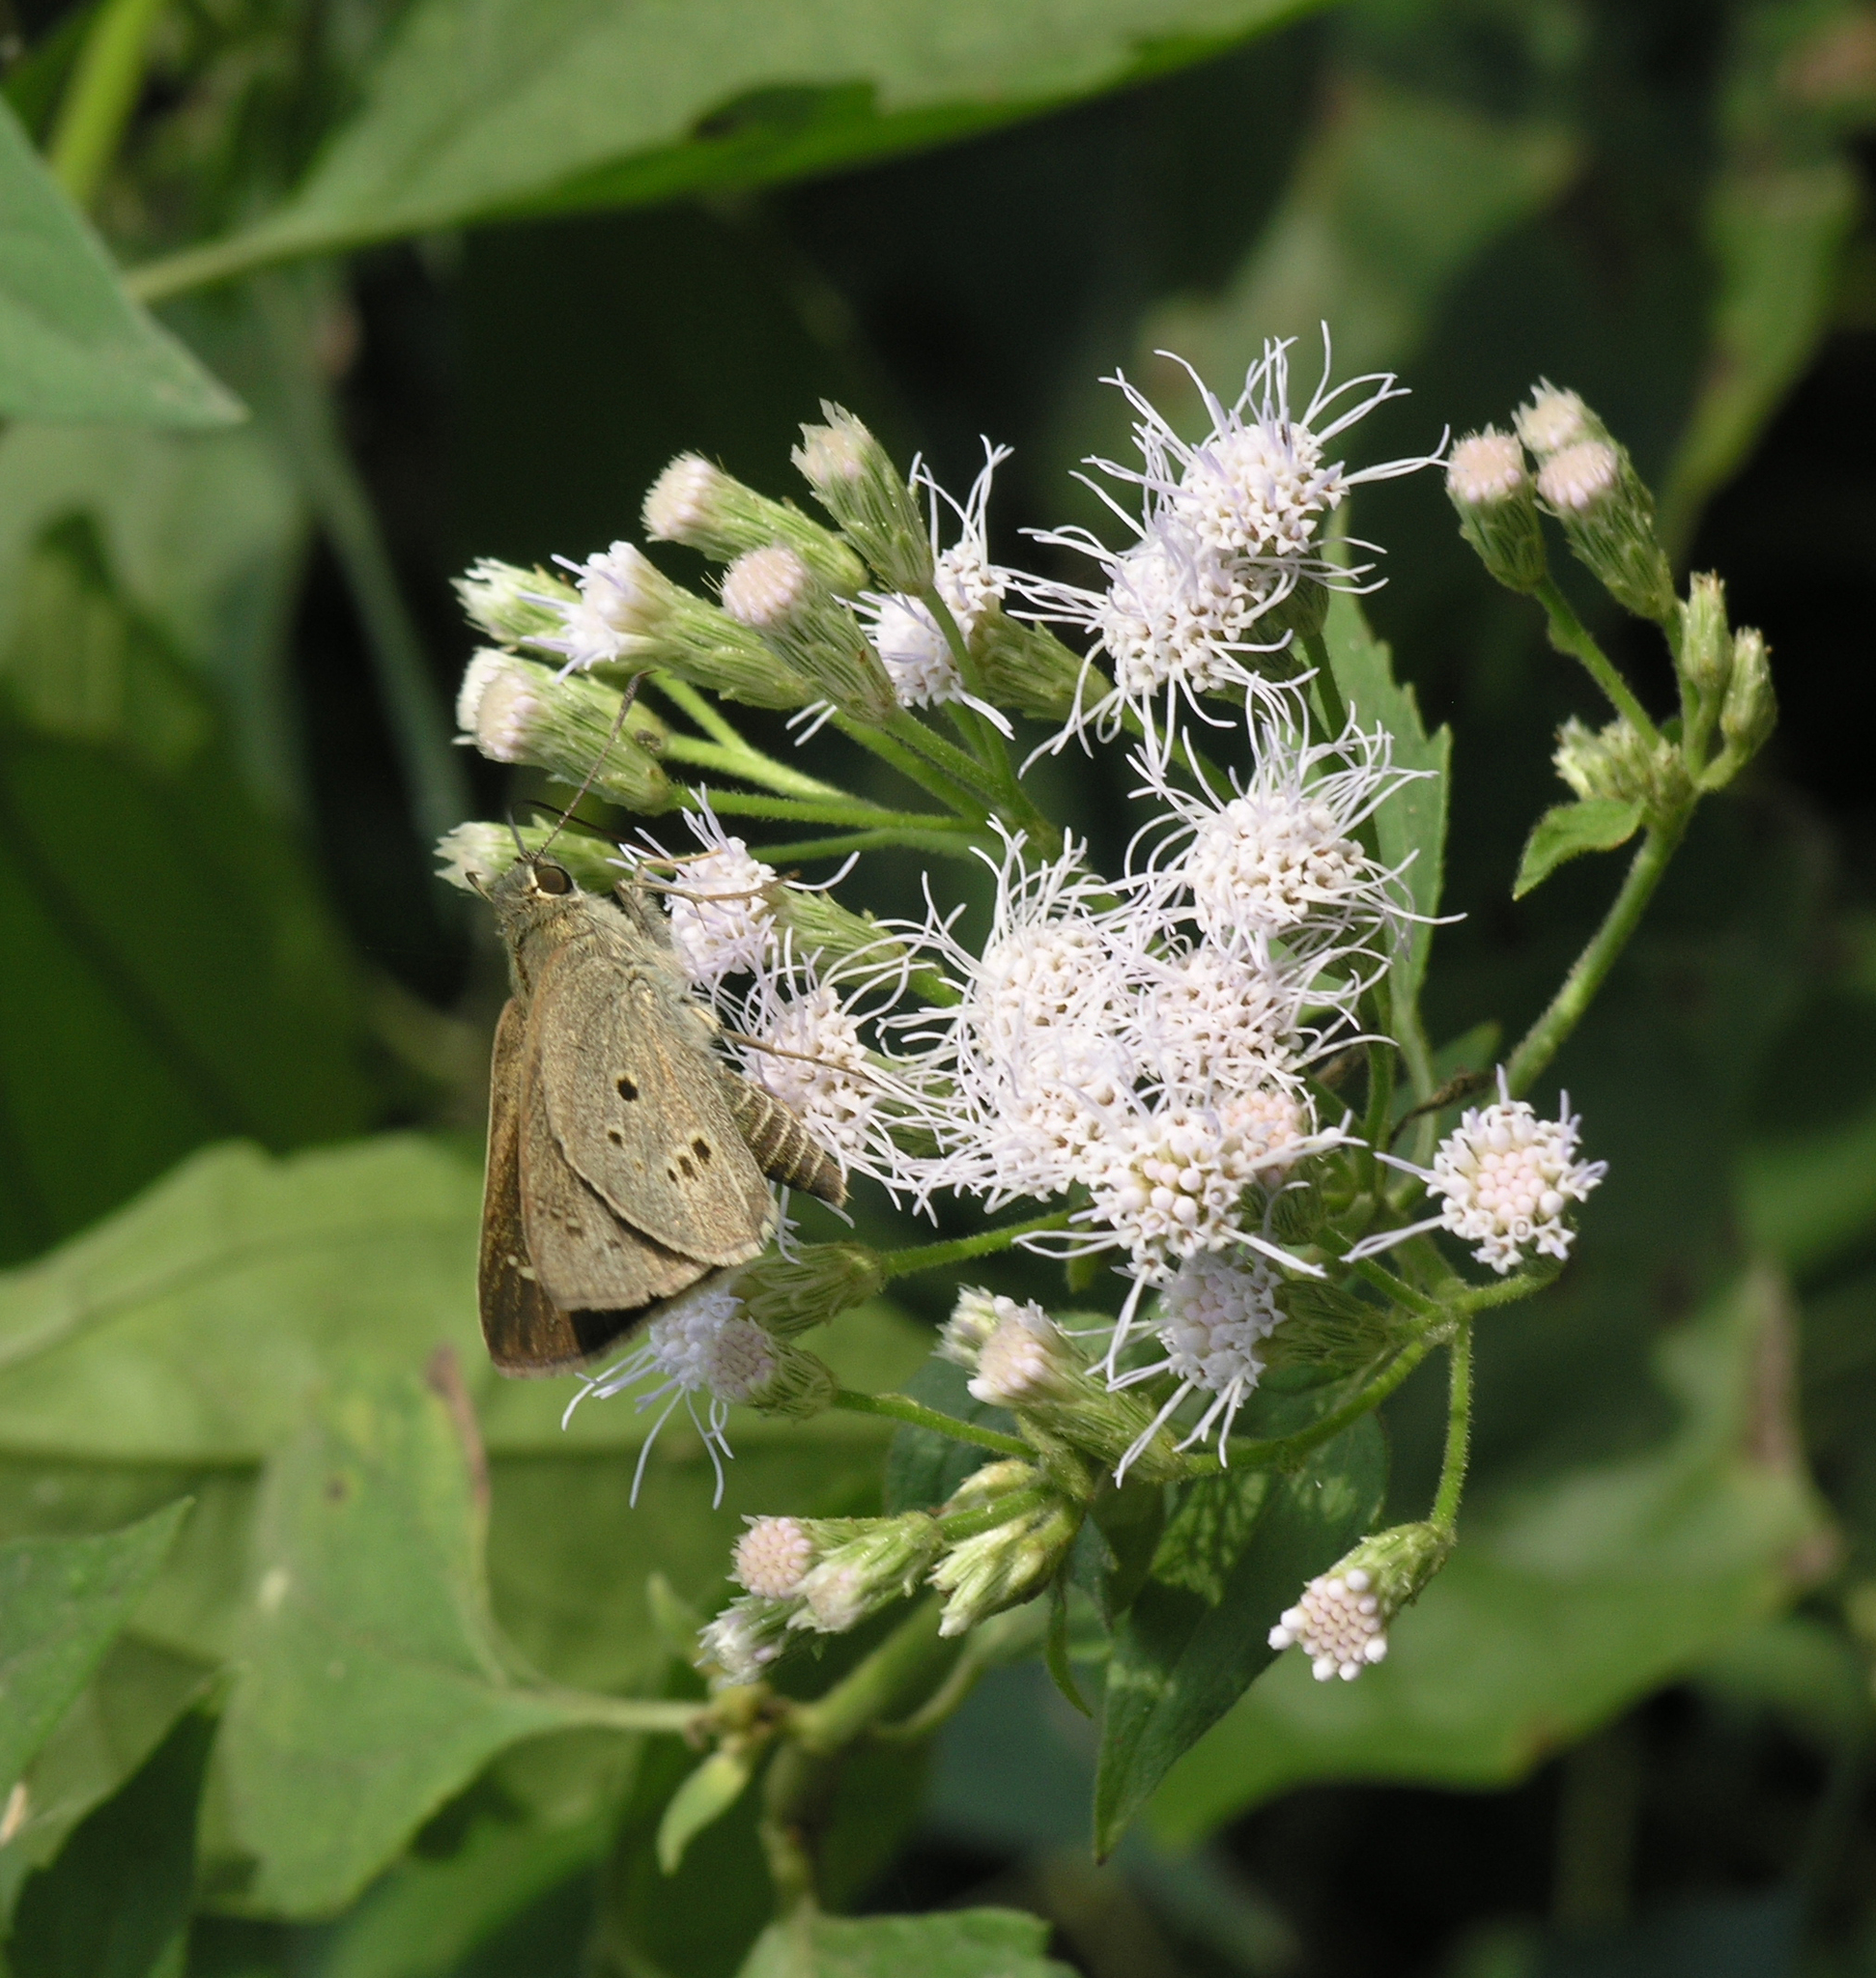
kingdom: Plantae
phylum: Tracheophyta
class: Magnoliopsida
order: Asterales
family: Asteraceae
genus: Chromolaena
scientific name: Chromolaena odorata
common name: Siamweed
